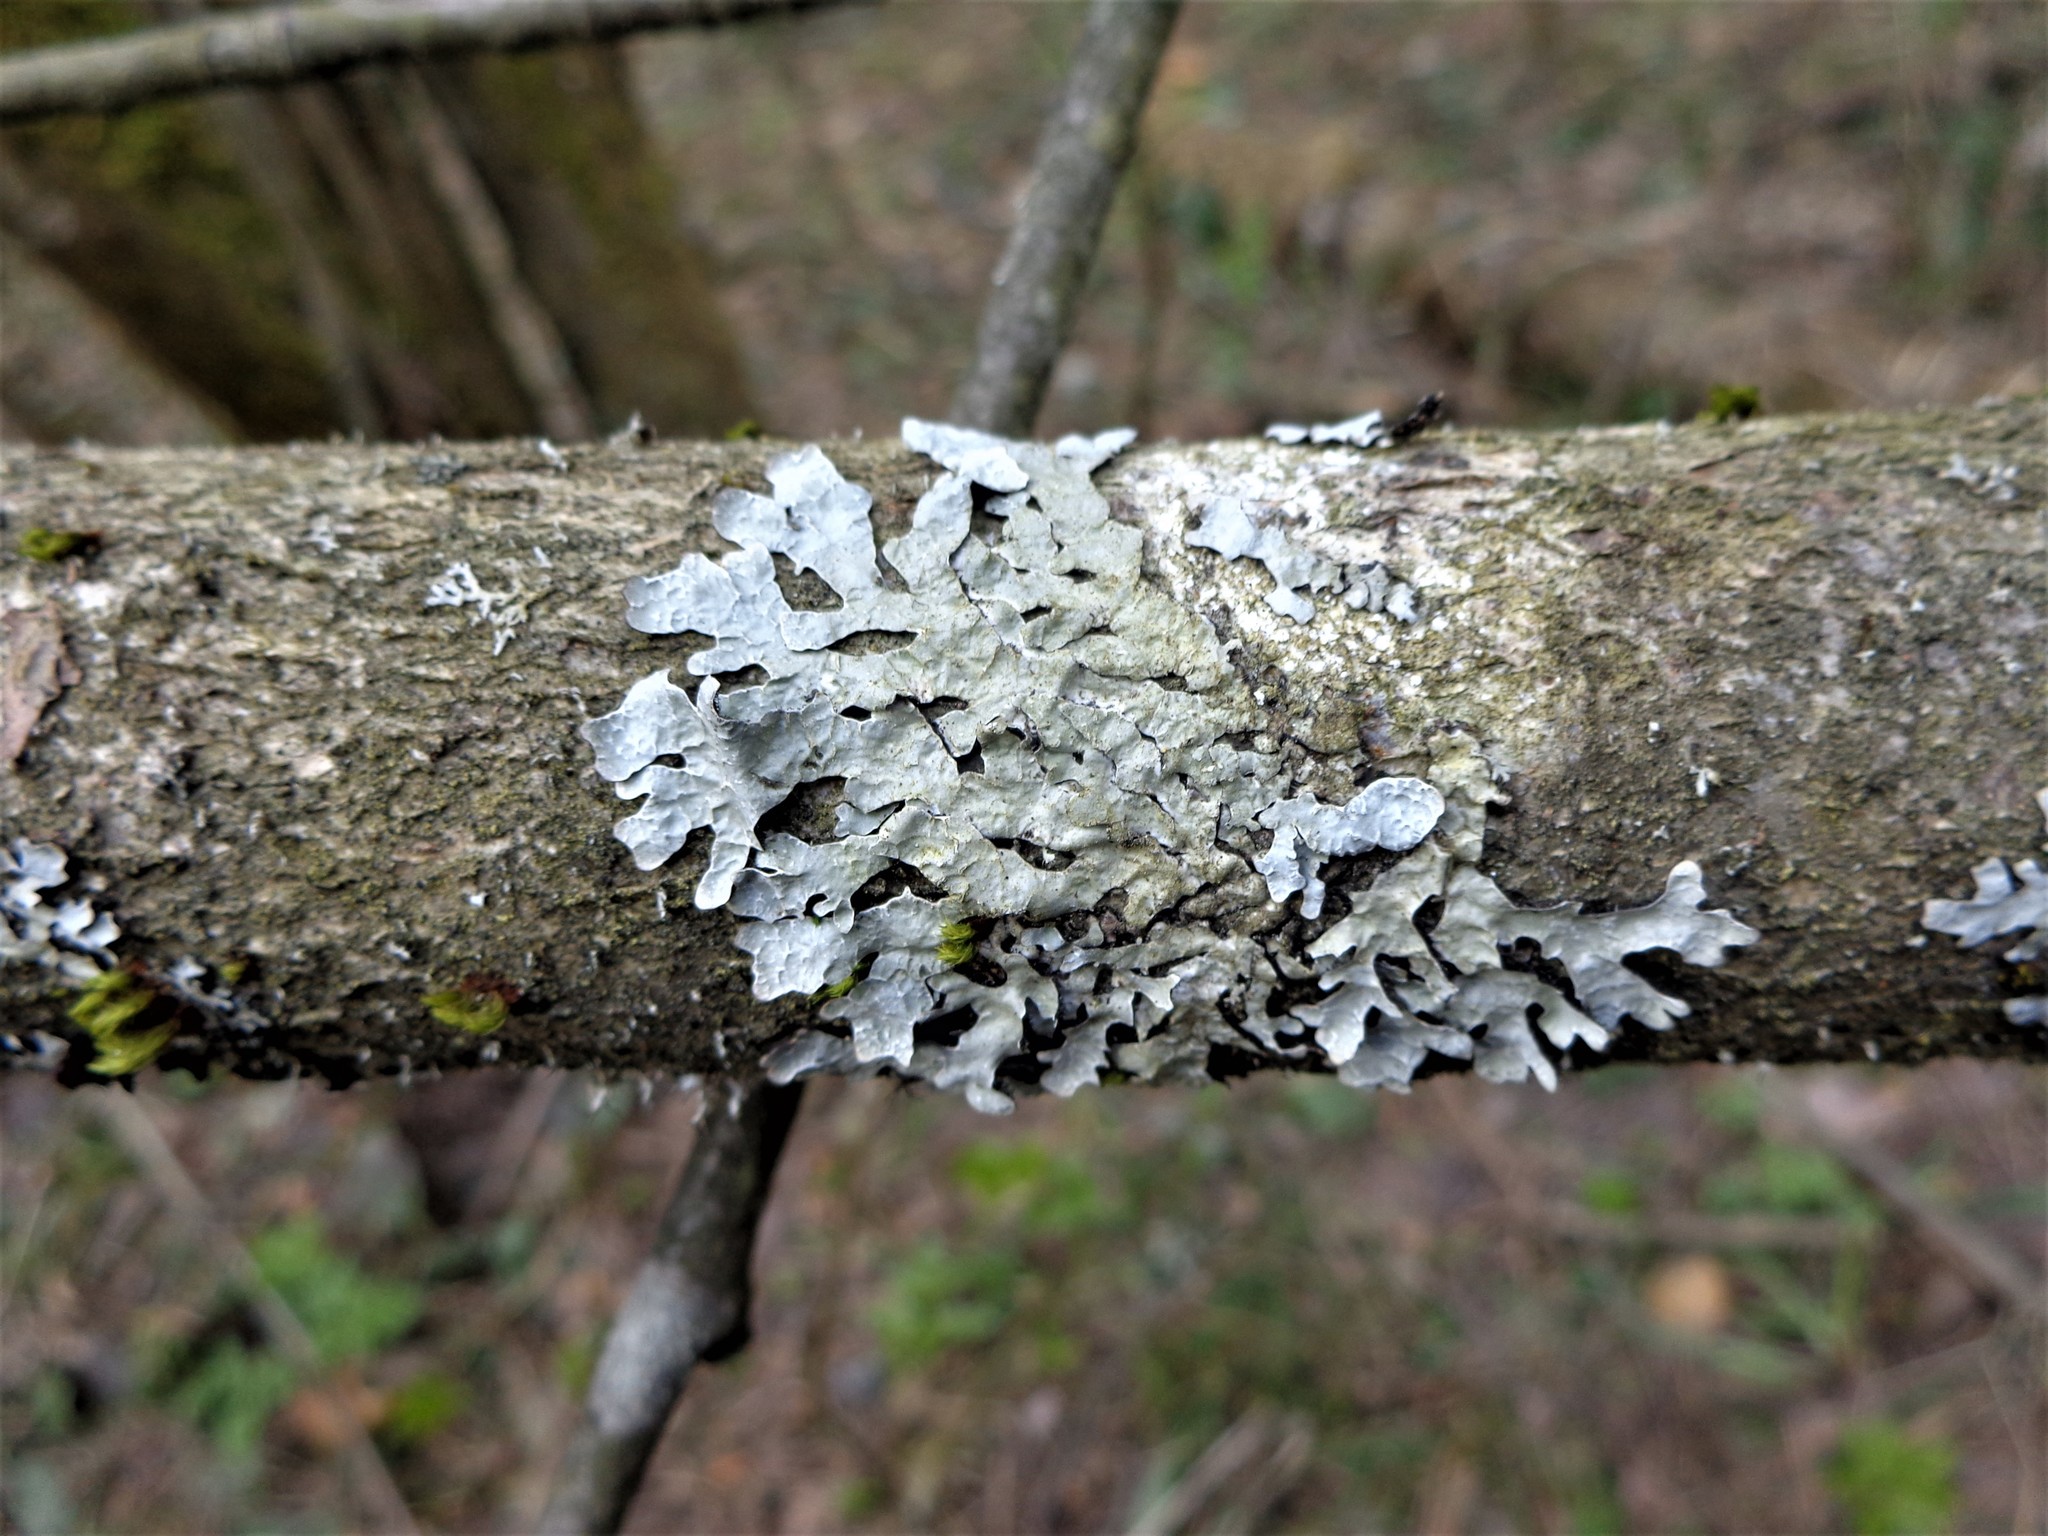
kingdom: Fungi
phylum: Ascomycota
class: Lecanoromycetes
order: Lecanorales
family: Parmeliaceae
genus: Parmelia
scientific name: Parmelia sulcata
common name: Netted shield lichen
